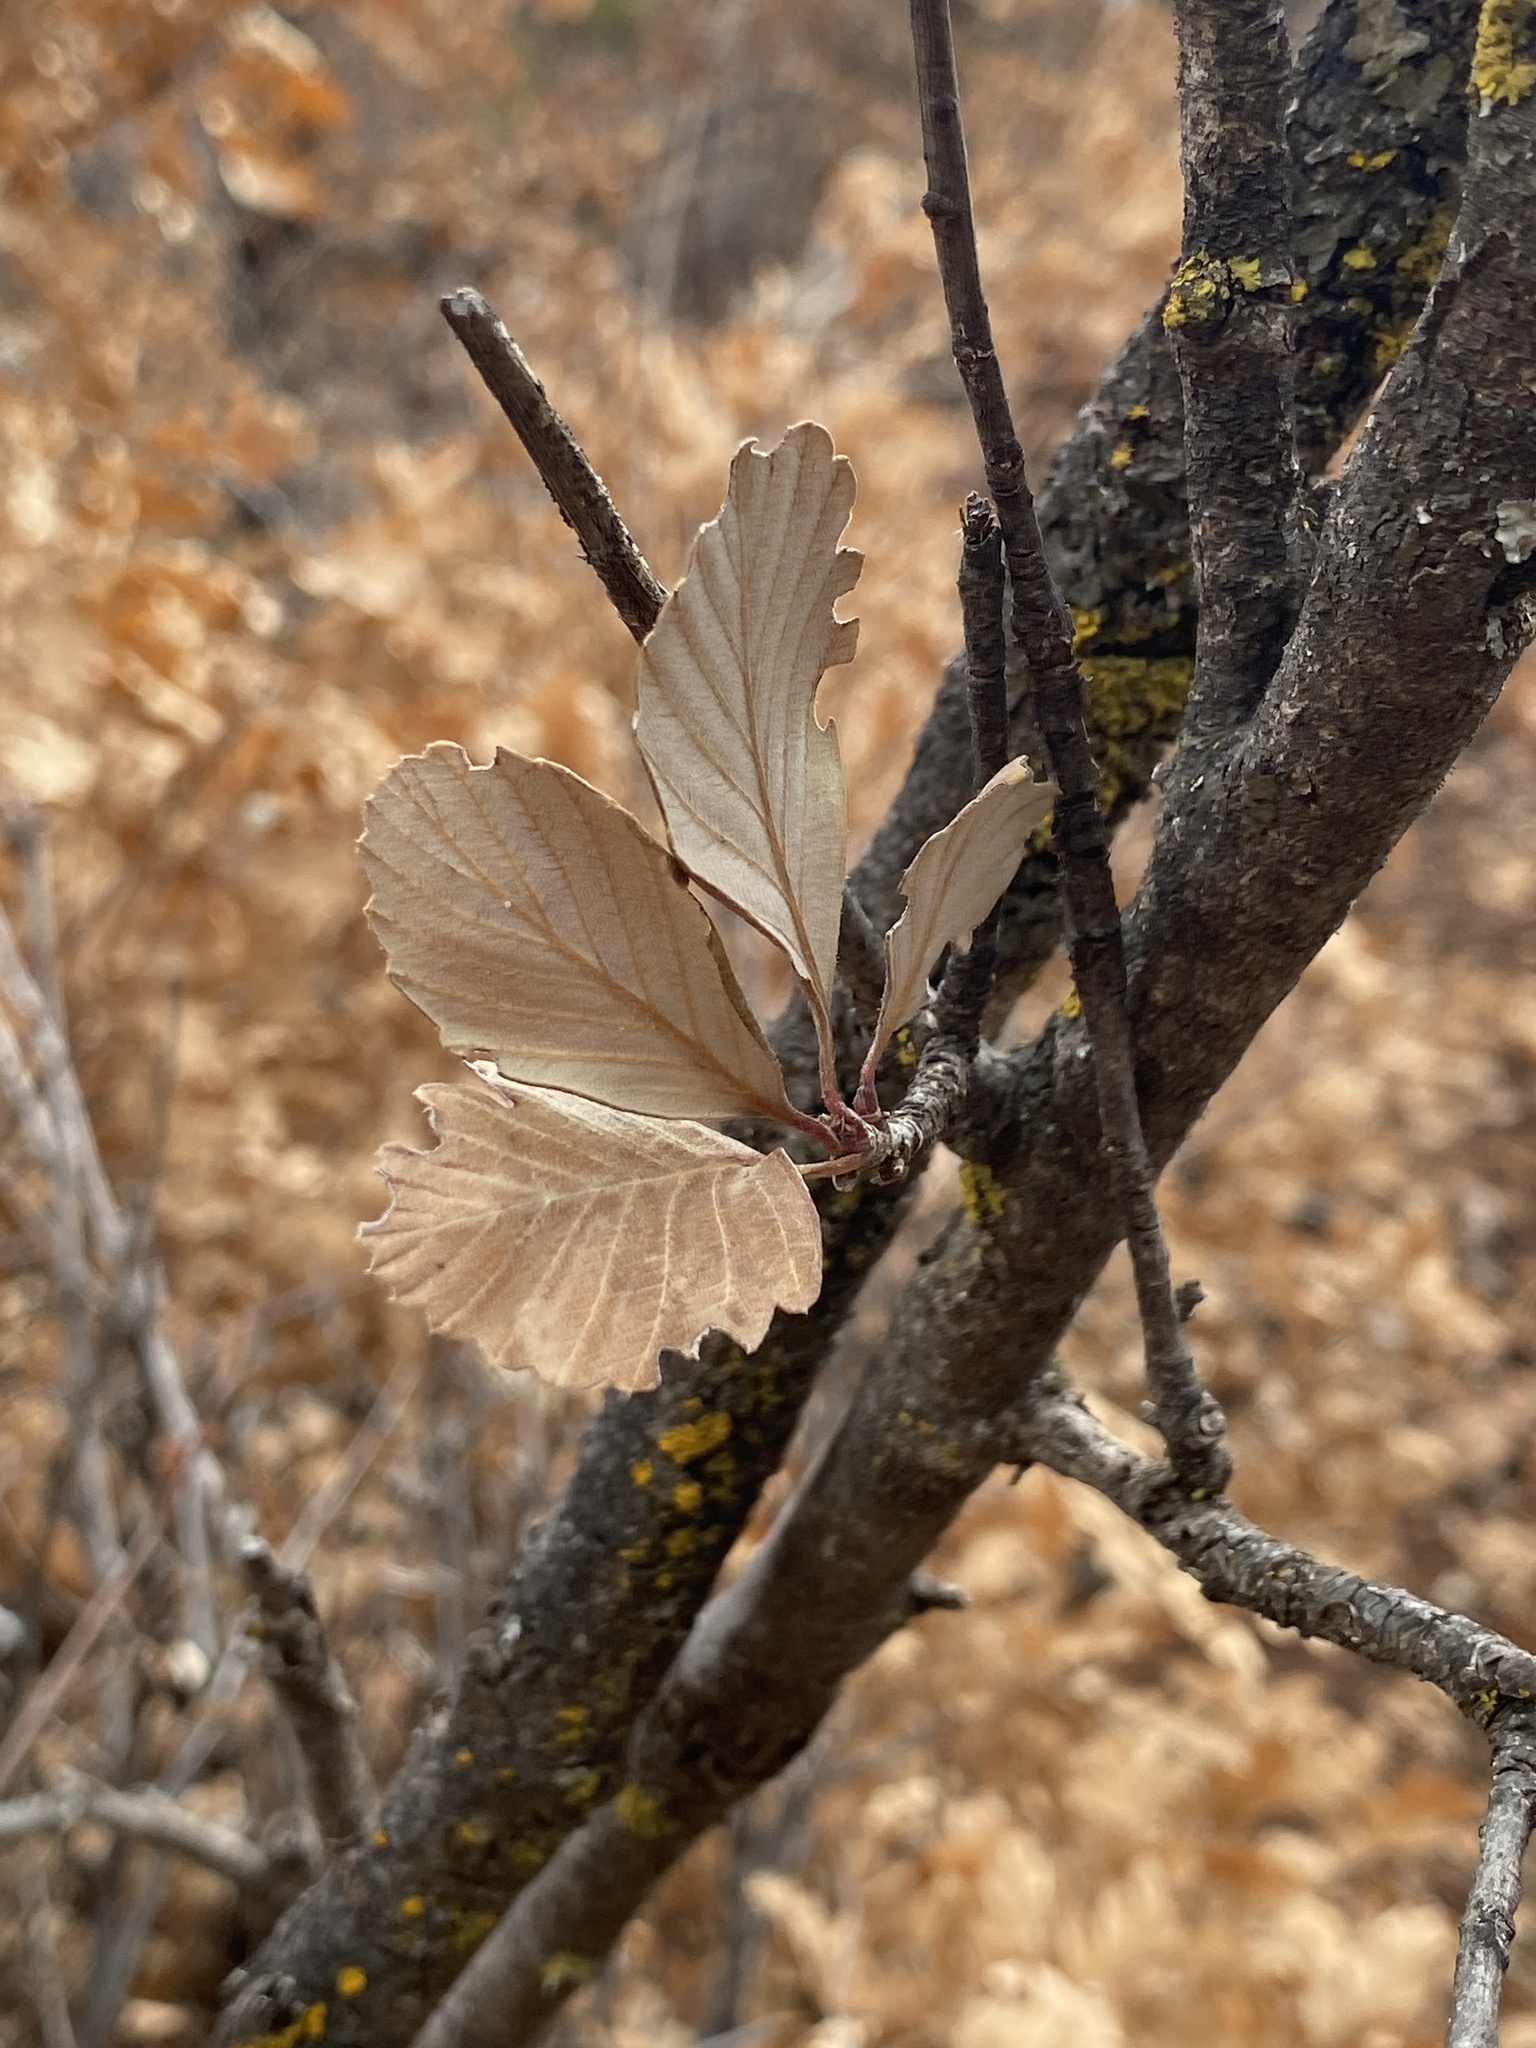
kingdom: Plantae
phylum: Tracheophyta
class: Magnoliopsida
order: Rosales
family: Rosaceae
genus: Cercocarpus
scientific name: Cercocarpus montanus
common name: Alder-leaf cercocarpus
